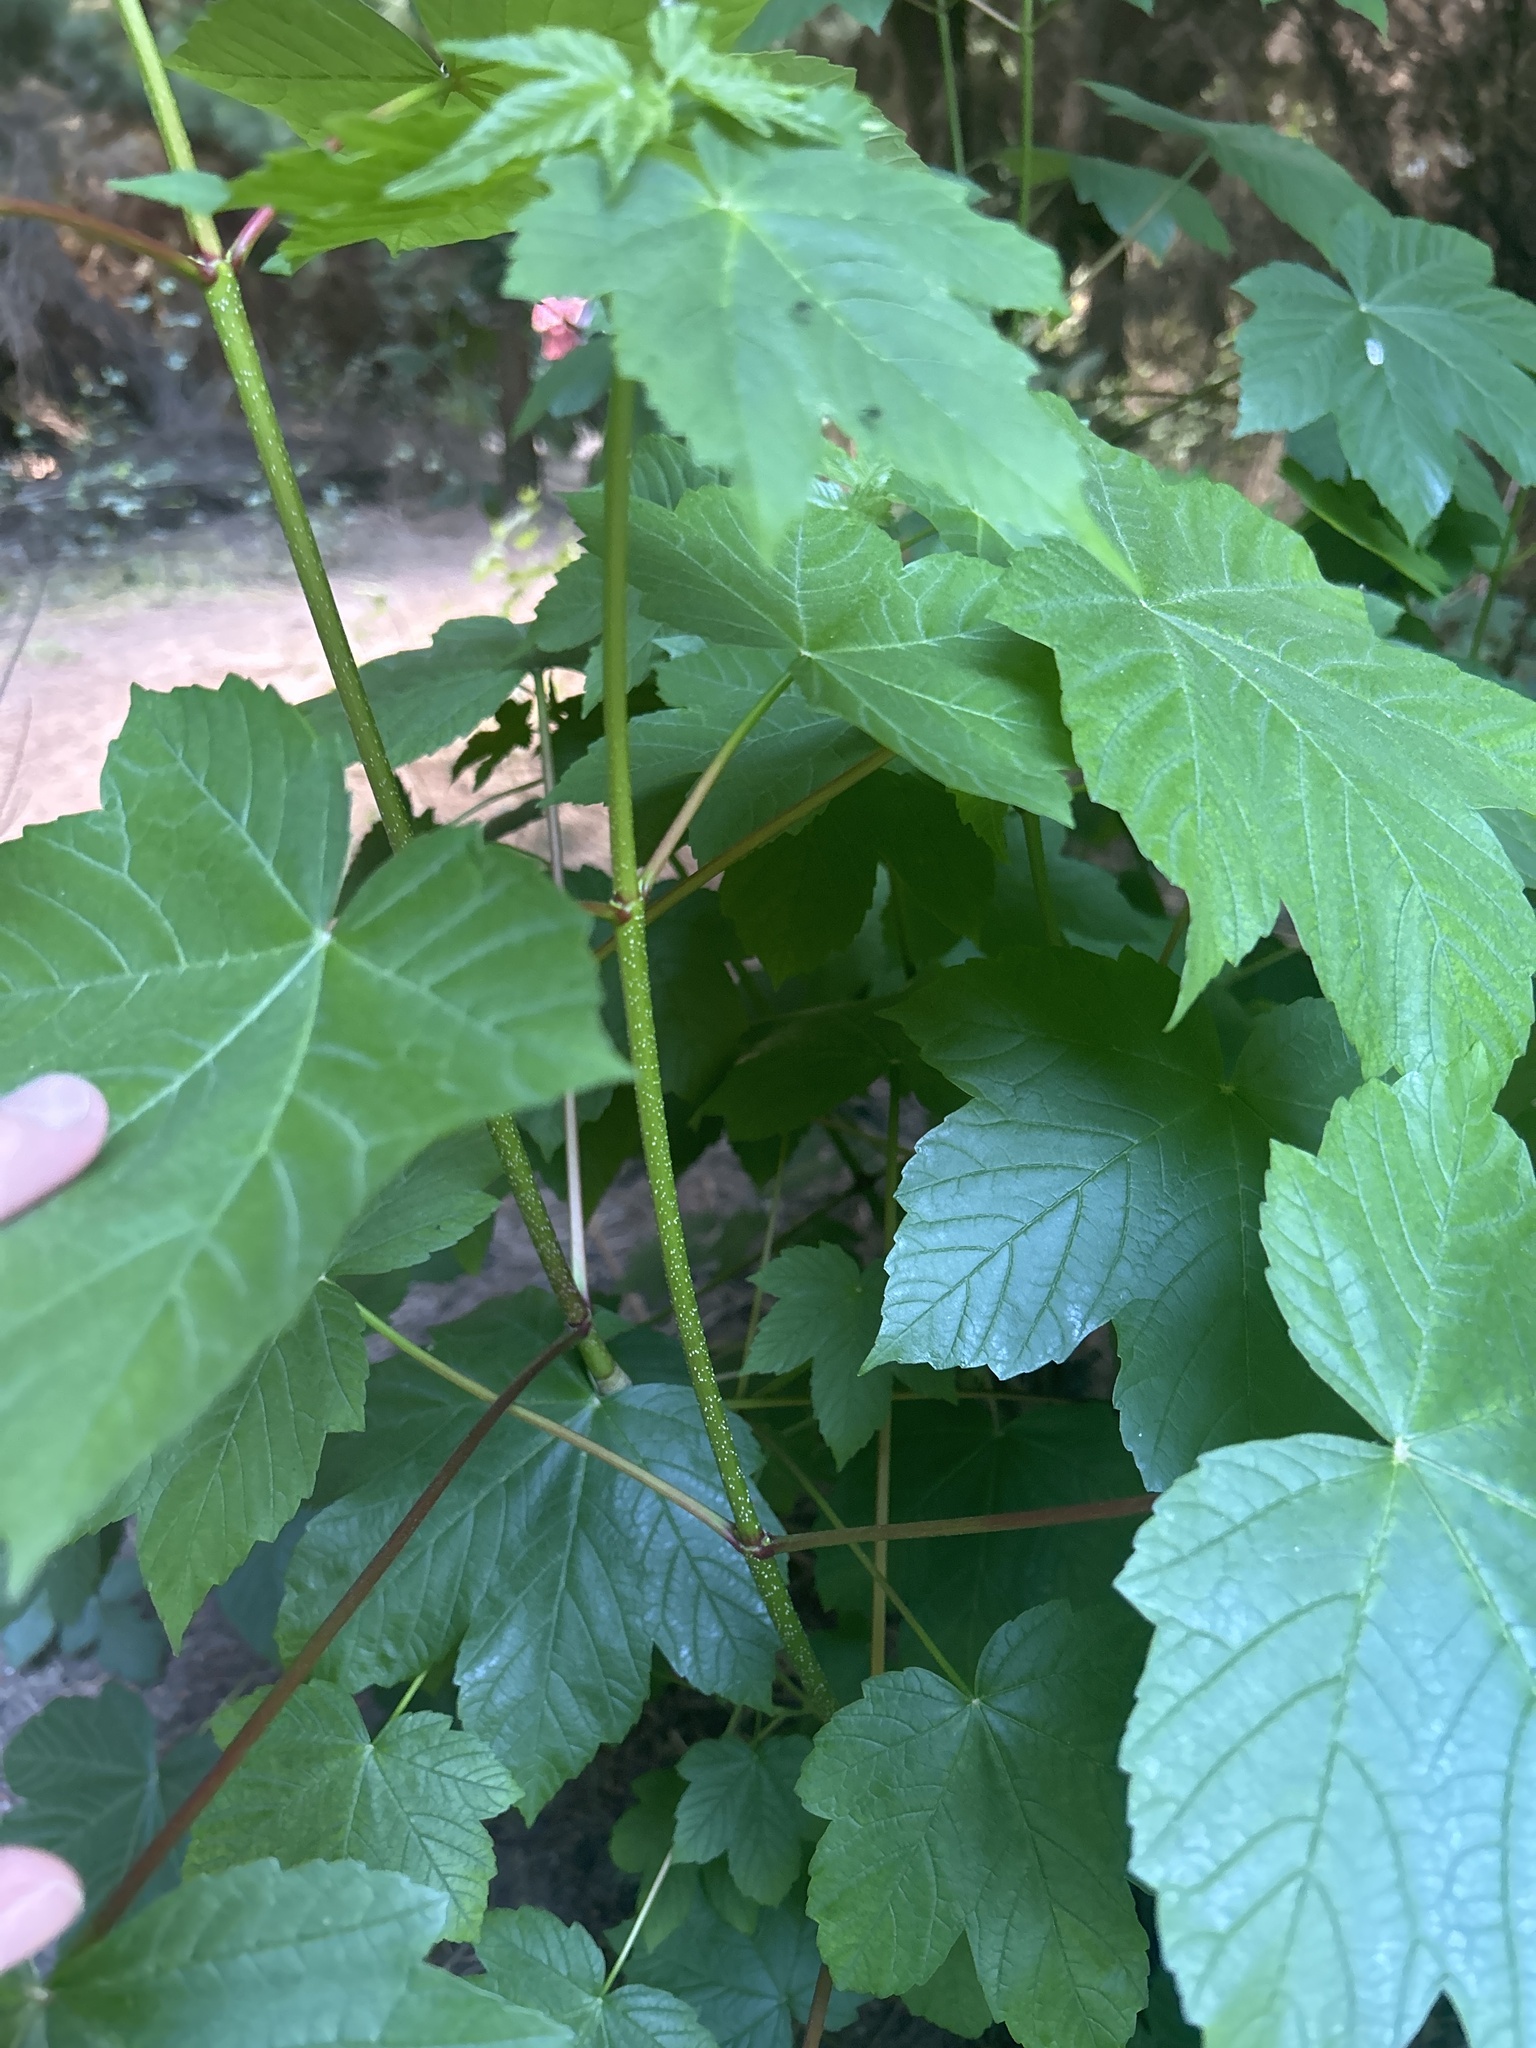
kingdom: Plantae
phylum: Tracheophyta
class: Magnoliopsida
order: Sapindales
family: Sapindaceae
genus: Acer
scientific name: Acer pseudoplatanus
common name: Sycamore
